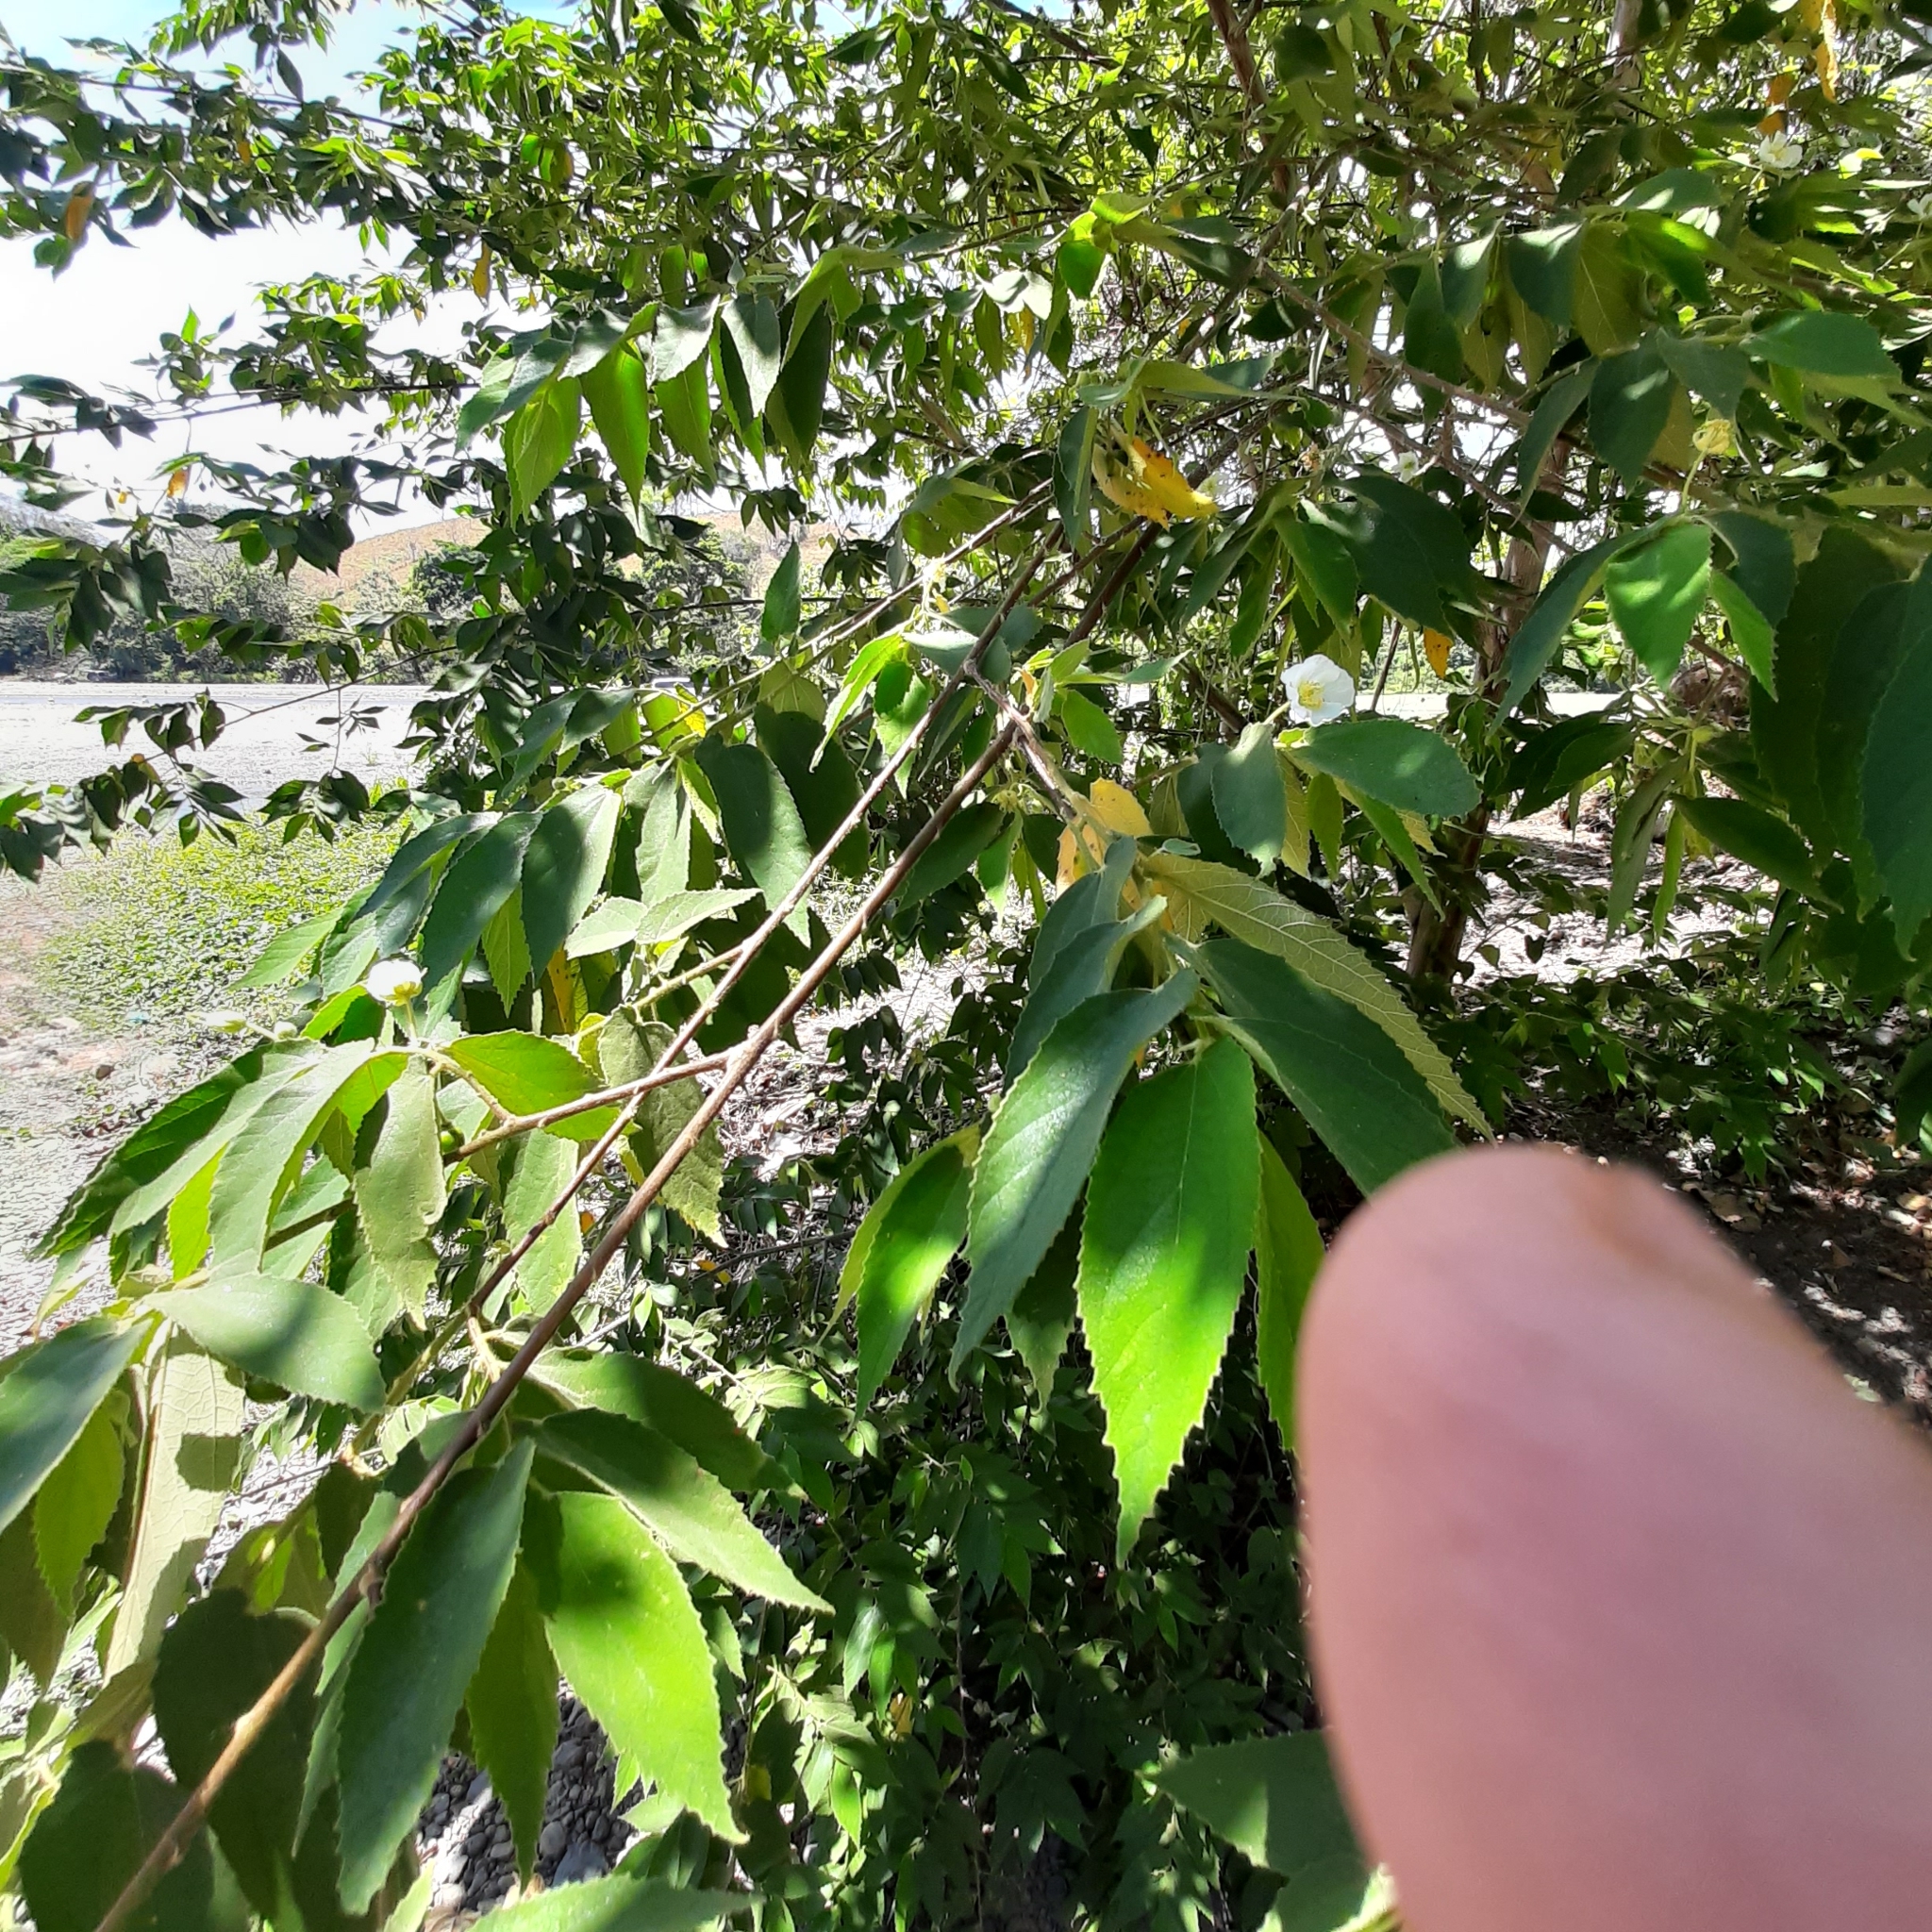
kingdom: Plantae
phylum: Tracheophyta
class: Magnoliopsida
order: Malvales
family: Muntingiaceae
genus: Muntingia
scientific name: Muntingia calabura
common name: Strawberrytree
